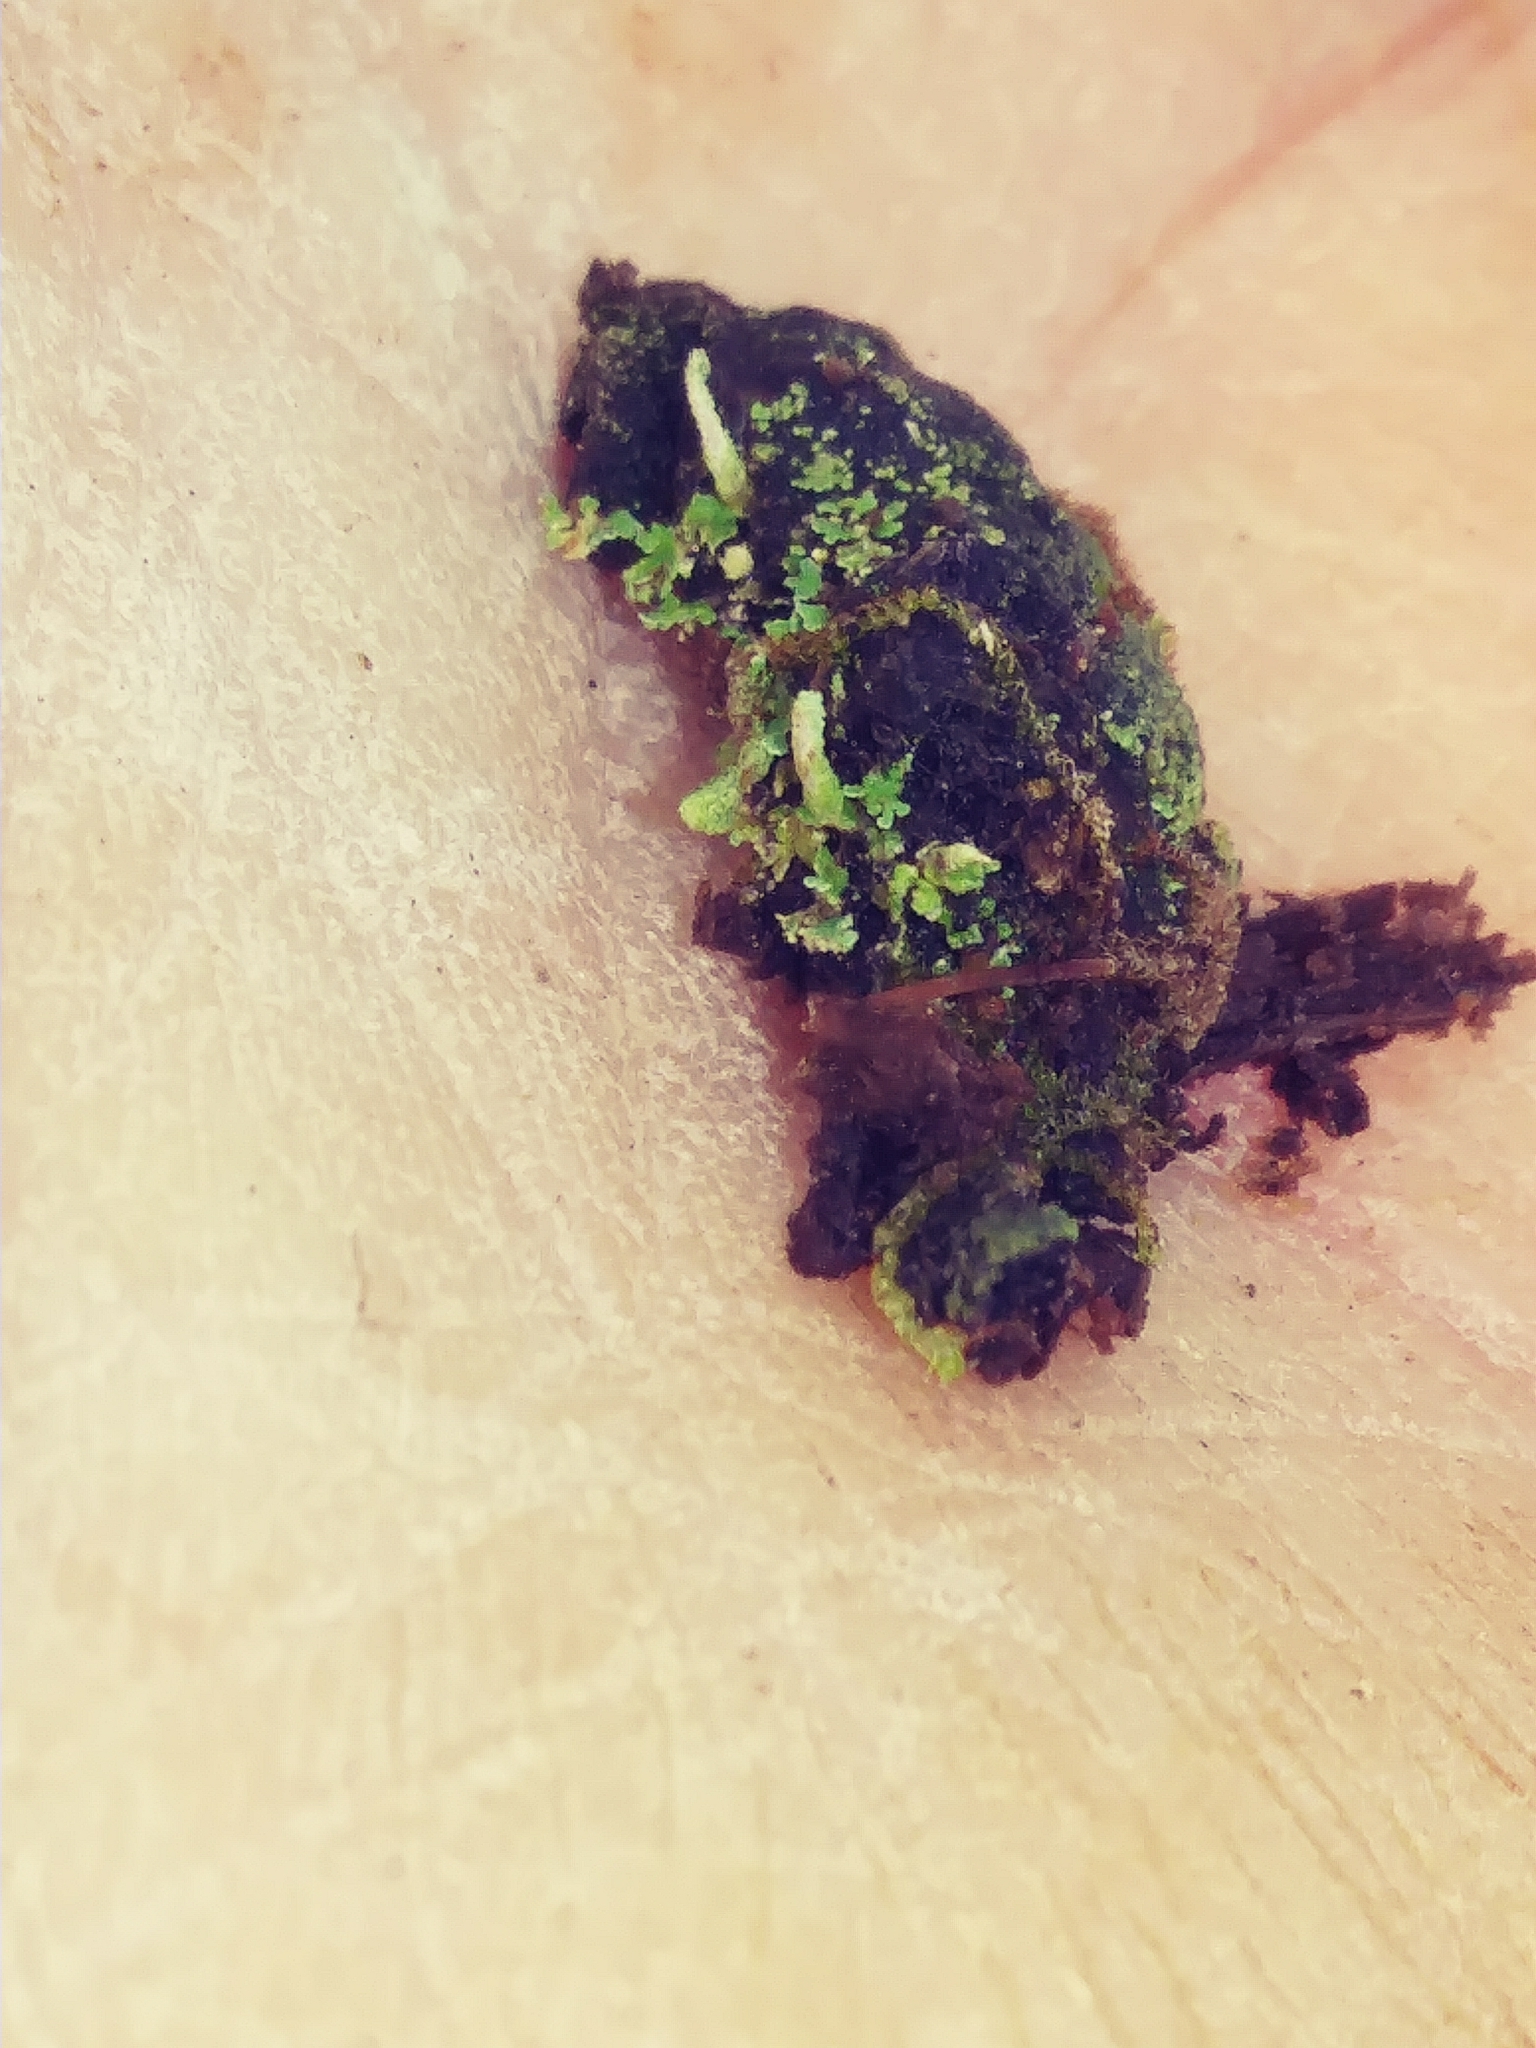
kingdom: Fungi
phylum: Ascomycota
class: Lecanoromycetes
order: Lecanorales
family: Cladoniaceae
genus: Cladonia
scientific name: Cladonia coniocraea
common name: Common powderhorn
